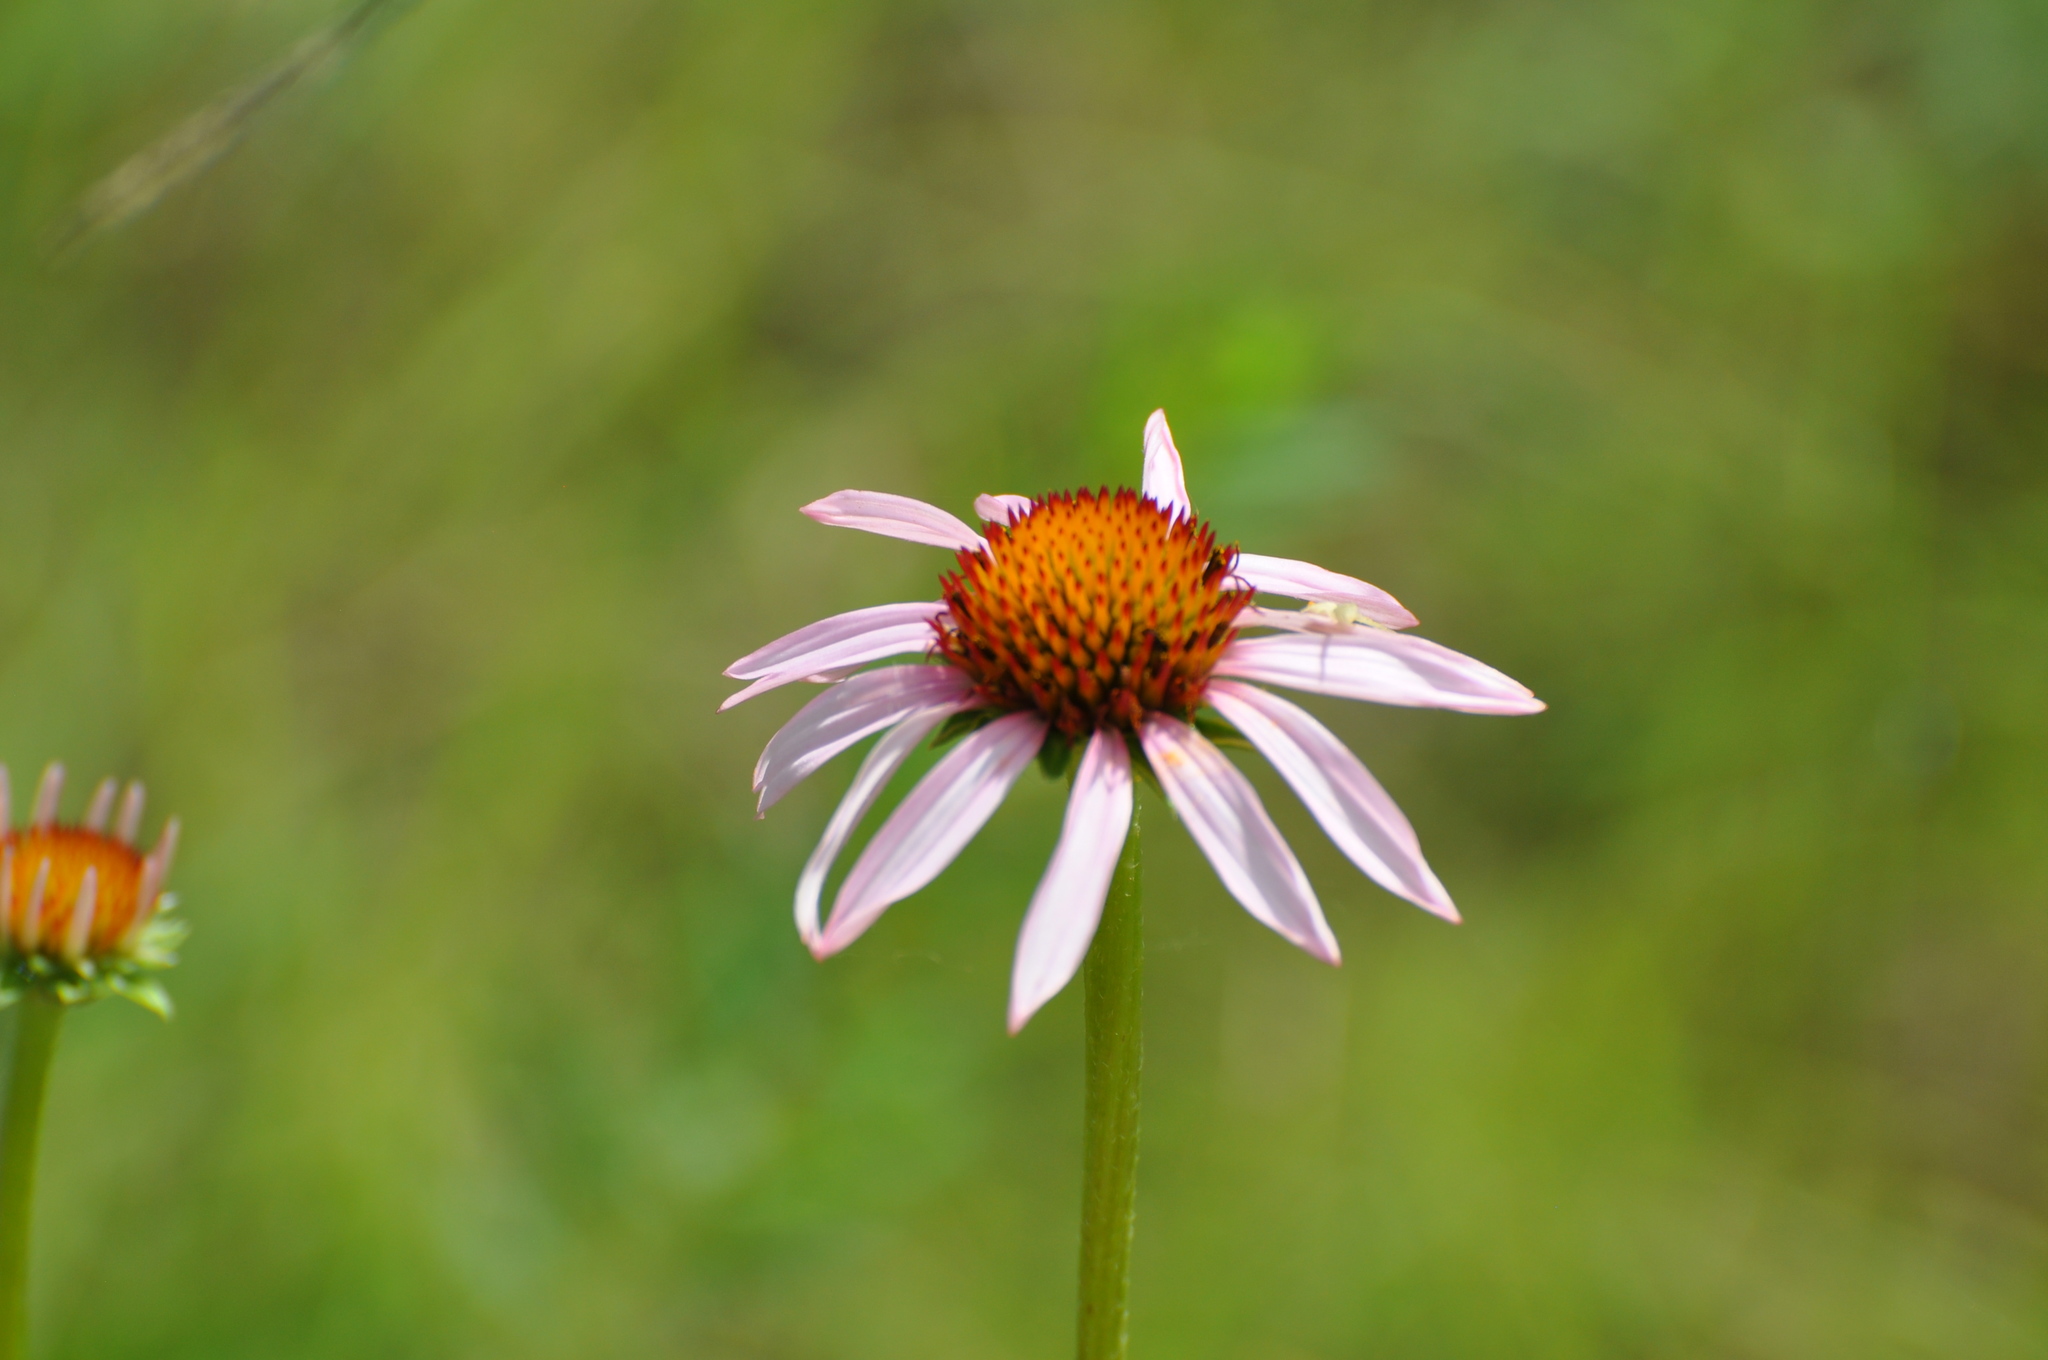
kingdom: Plantae
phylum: Tracheophyta
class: Magnoliopsida
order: Asterales
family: Asteraceae
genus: Echinacea
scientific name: Echinacea angustifolia
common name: Black-sampson echinacea
